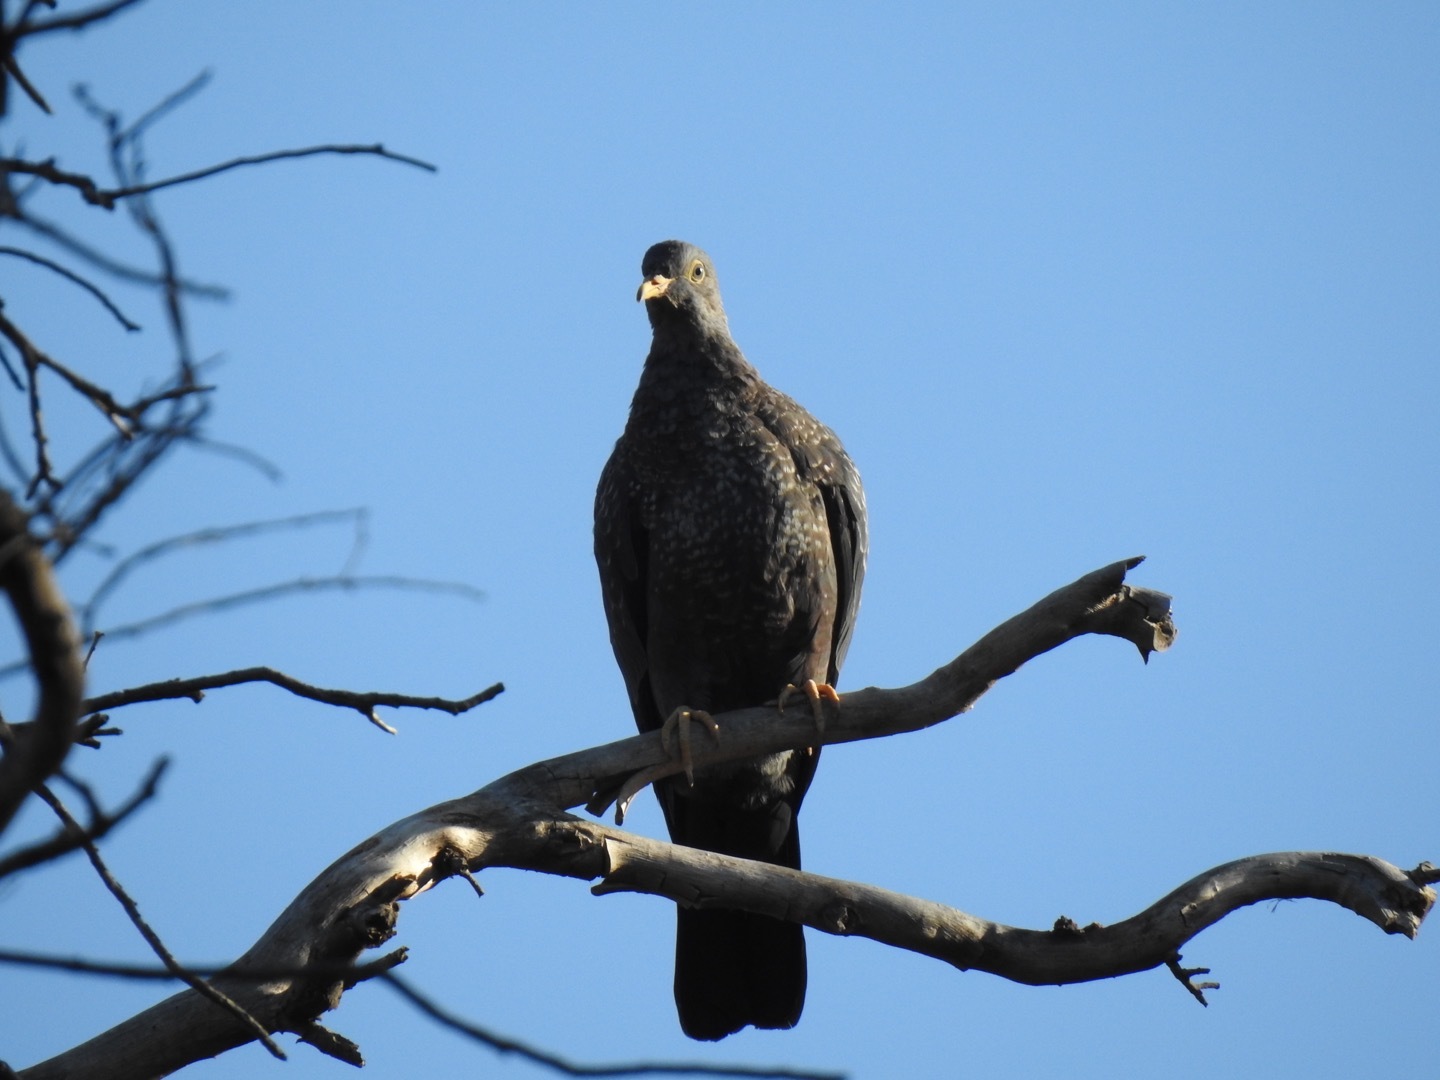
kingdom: Animalia
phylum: Chordata
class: Aves
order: Columbiformes
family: Columbidae
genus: Columba
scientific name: Columba arquatrix
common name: African olive pigeon
